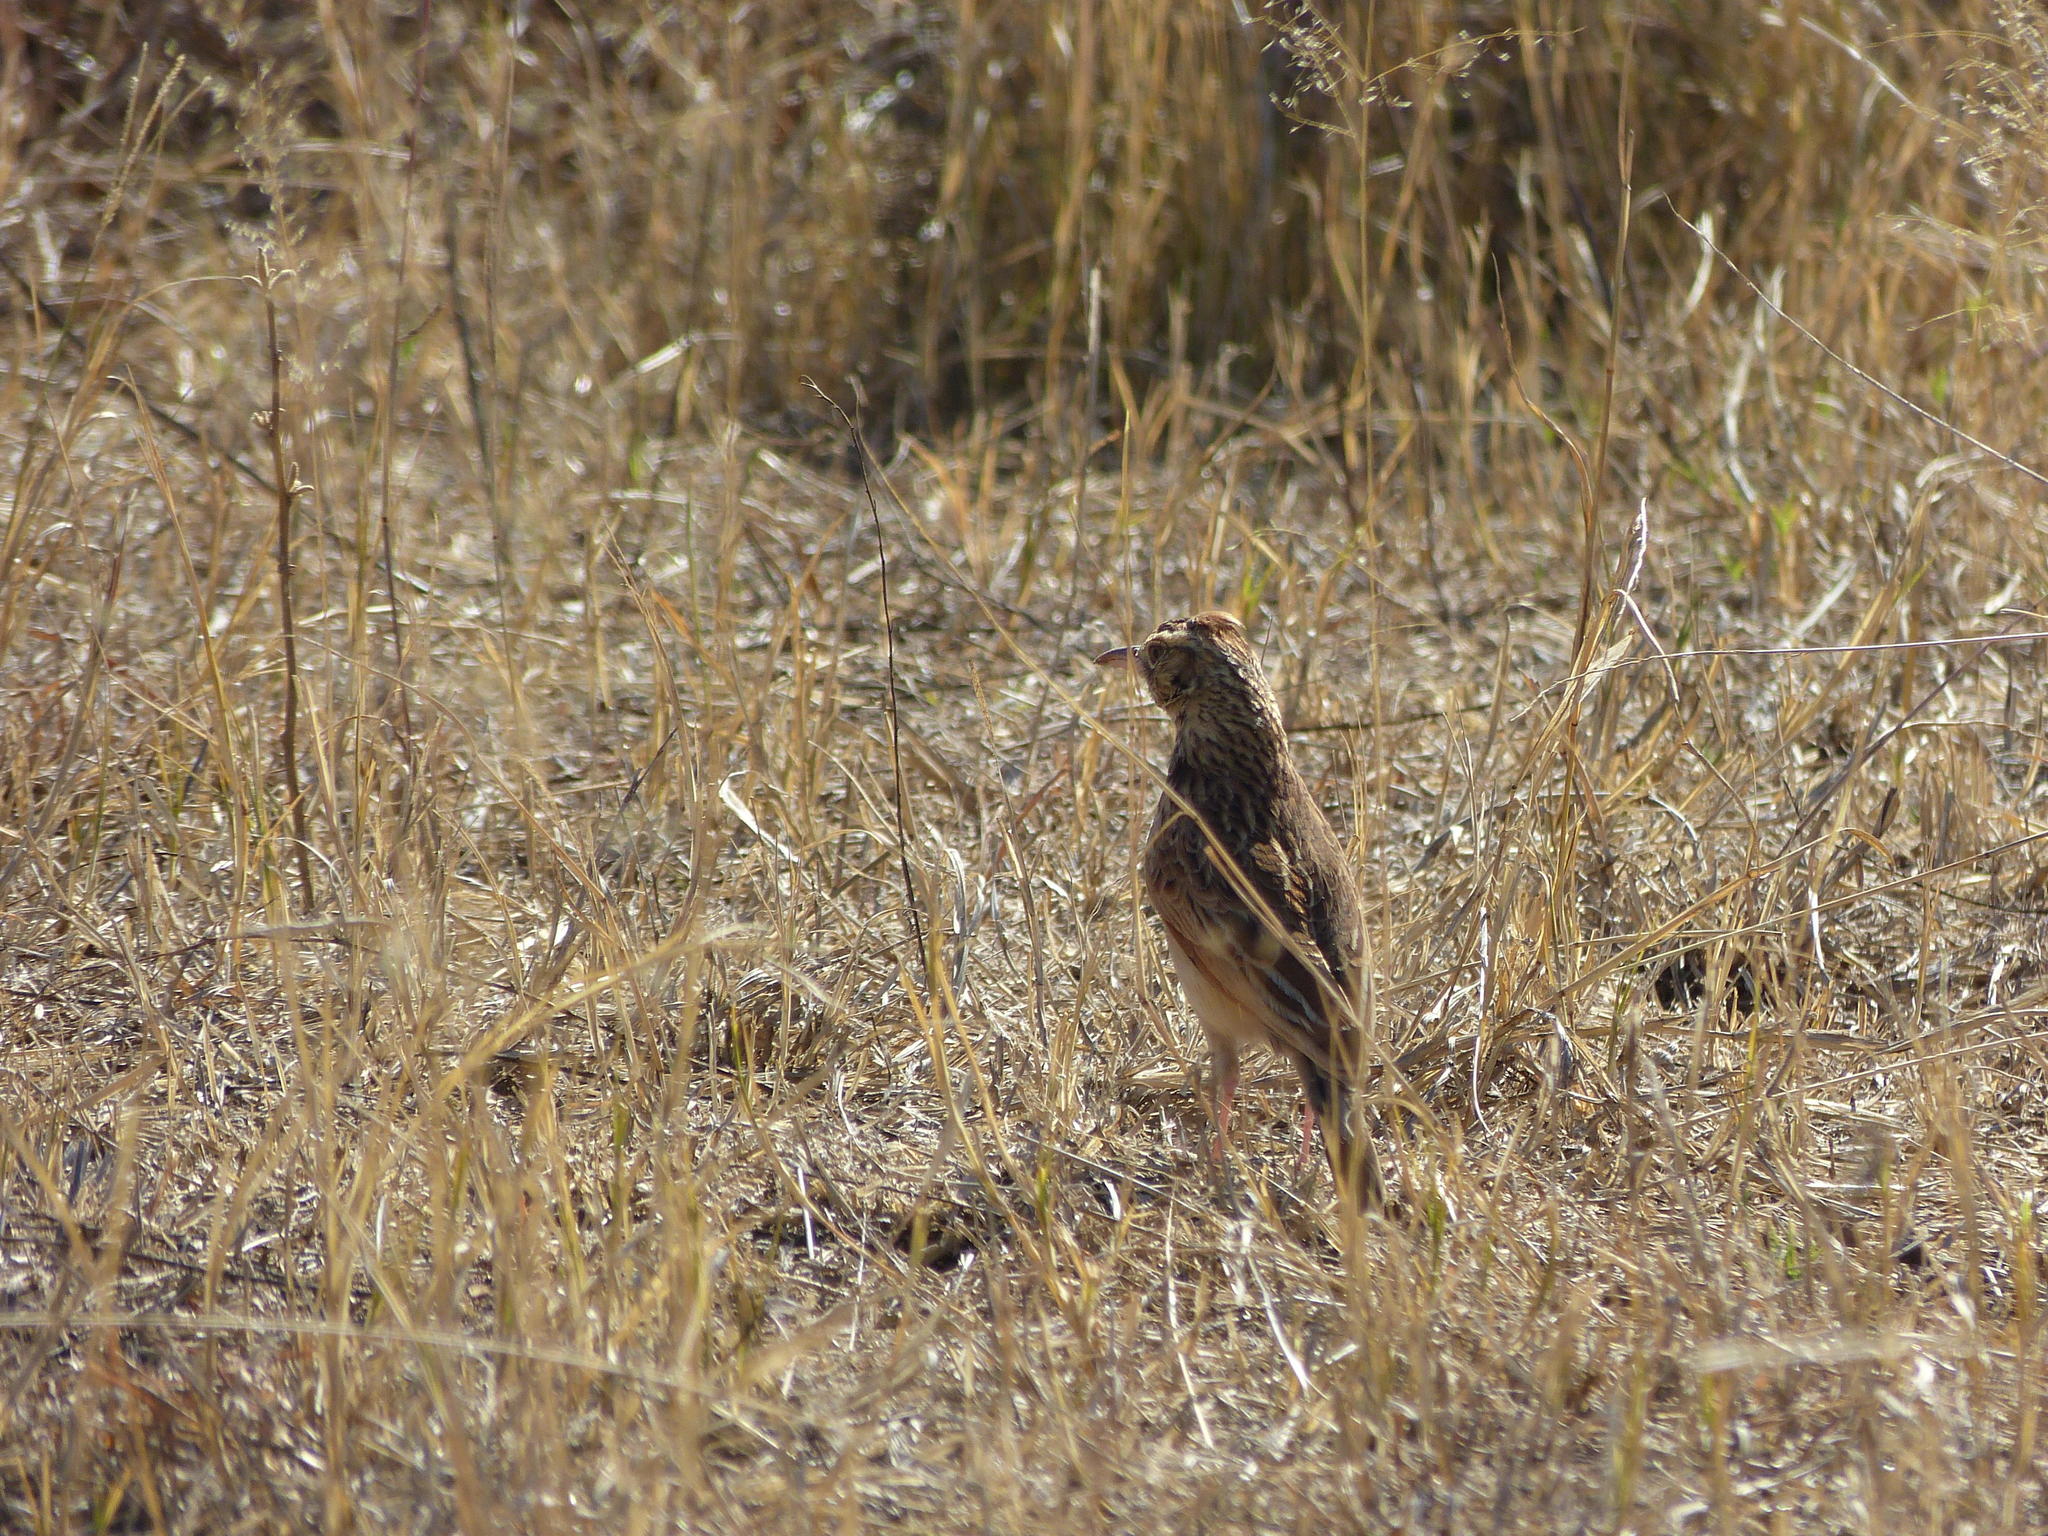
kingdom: Animalia
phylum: Chordata
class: Aves
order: Passeriformes
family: Alaudidae
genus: Mirafra
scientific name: Mirafra africana
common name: Rufous-naped lark
